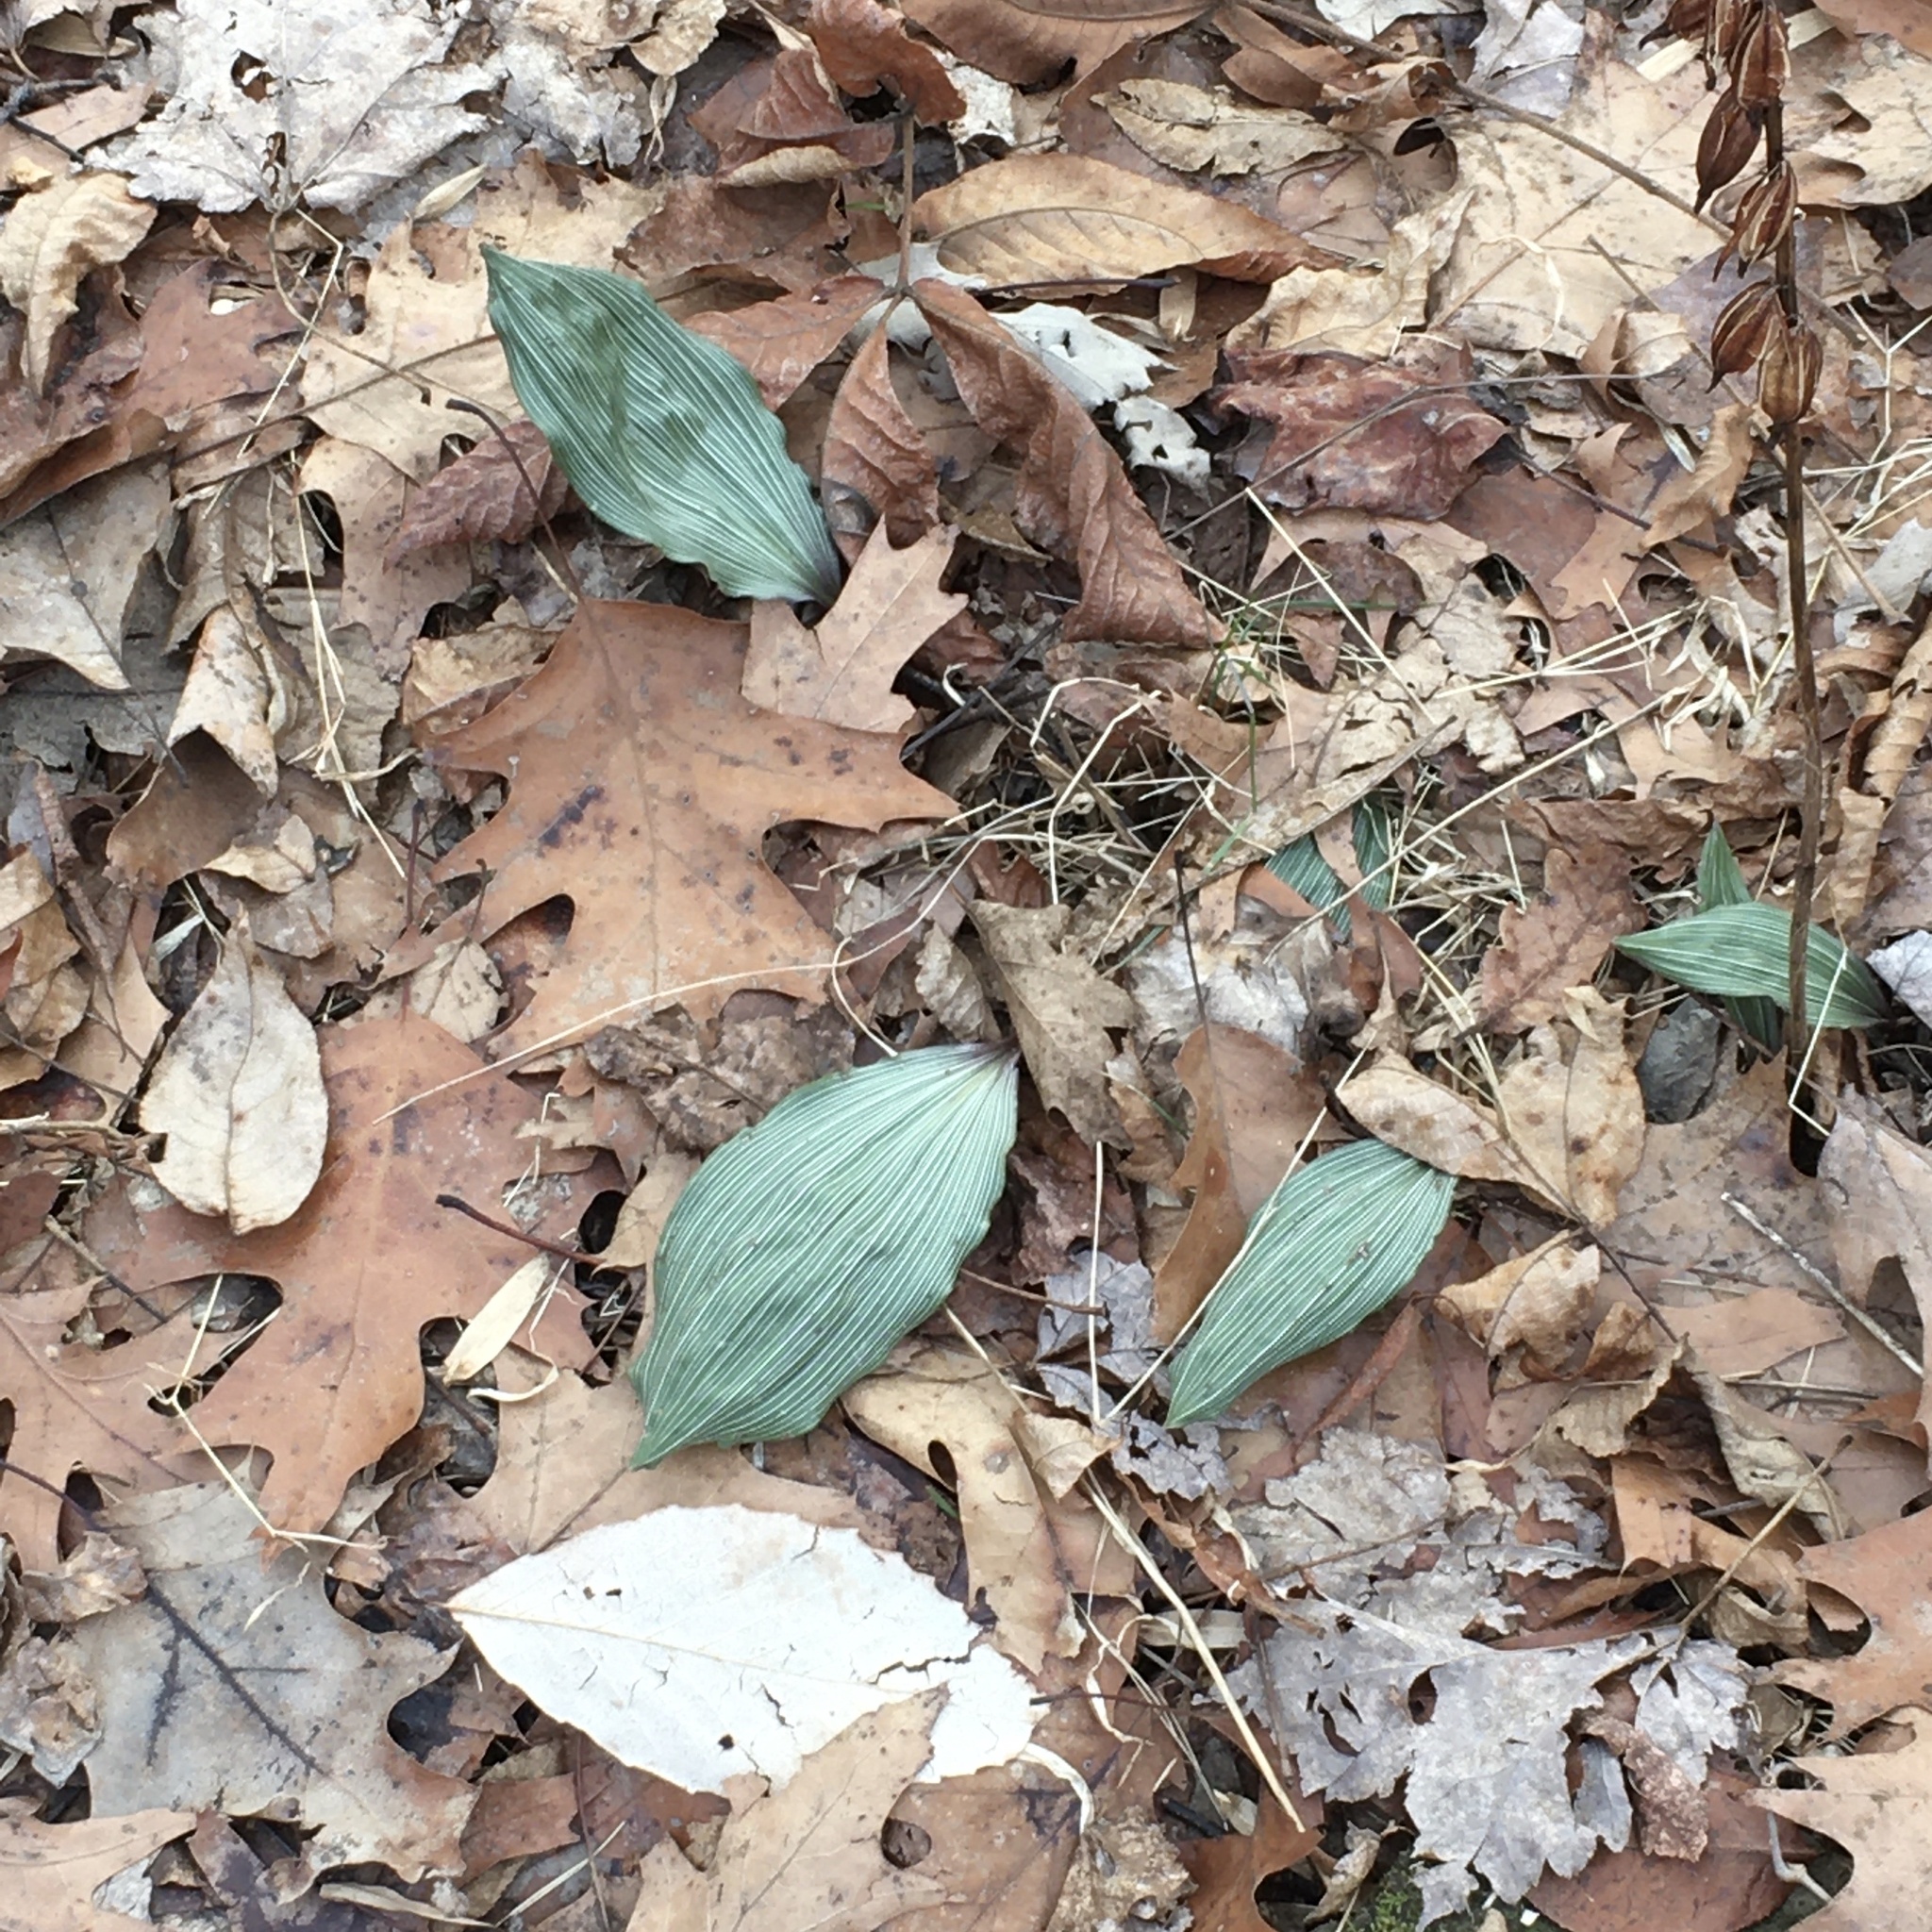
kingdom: Plantae
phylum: Tracheophyta
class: Liliopsida
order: Asparagales
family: Orchidaceae
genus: Aplectrum
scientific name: Aplectrum hyemale
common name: Adam-and-eve
